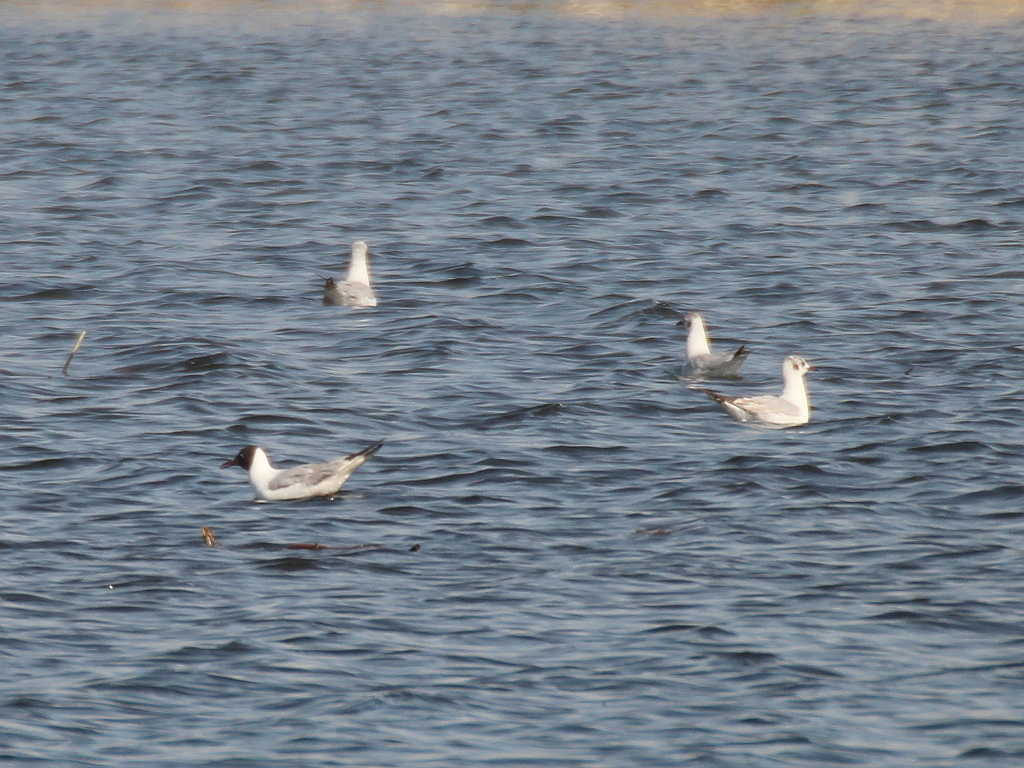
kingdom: Animalia
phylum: Chordata
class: Aves
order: Charadriiformes
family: Laridae
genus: Chroicocephalus
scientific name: Chroicocephalus ridibundus
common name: Black-headed gull
